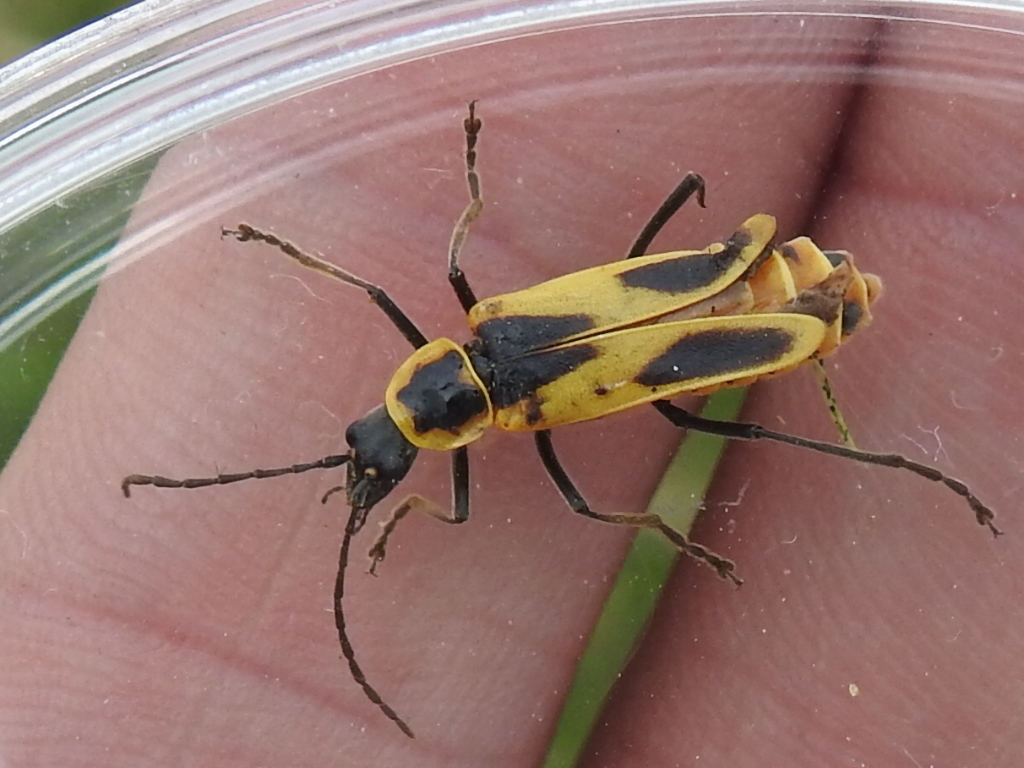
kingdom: Animalia
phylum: Arthropoda
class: Insecta
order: Coleoptera
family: Cantharidae
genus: Chauliognathus
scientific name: Chauliognathus scutellaris
